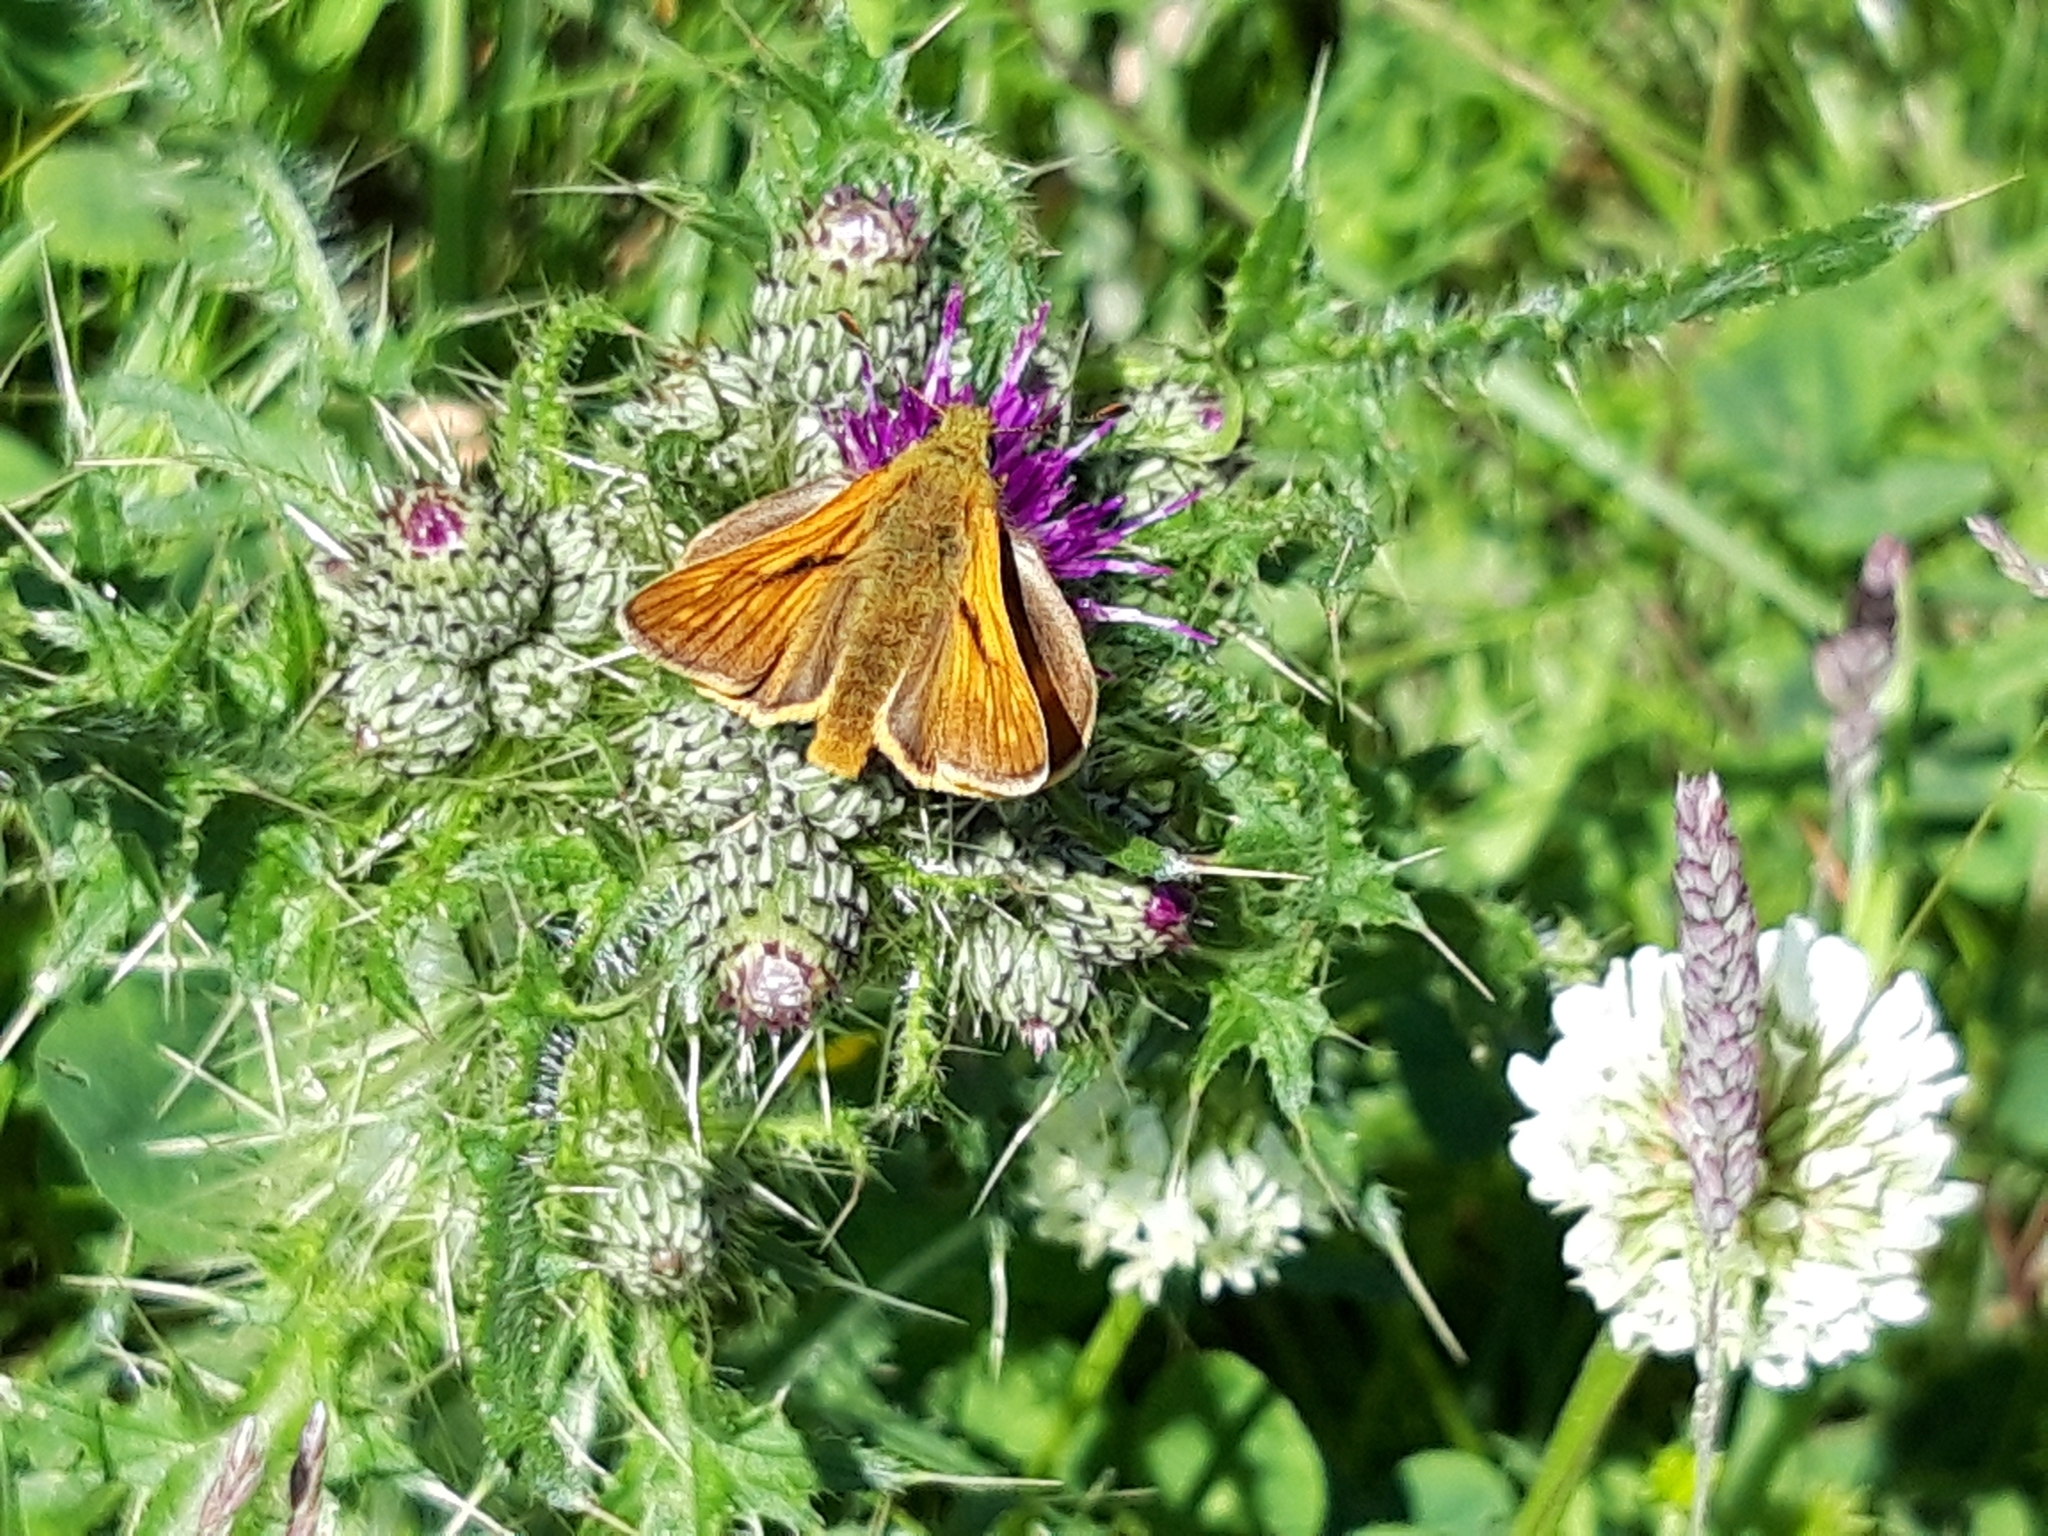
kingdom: Animalia
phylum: Arthropoda
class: Insecta
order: Lepidoptera
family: Hesperiidae
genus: Ochlodes
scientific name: Ochlodes venata
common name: Large skipper
